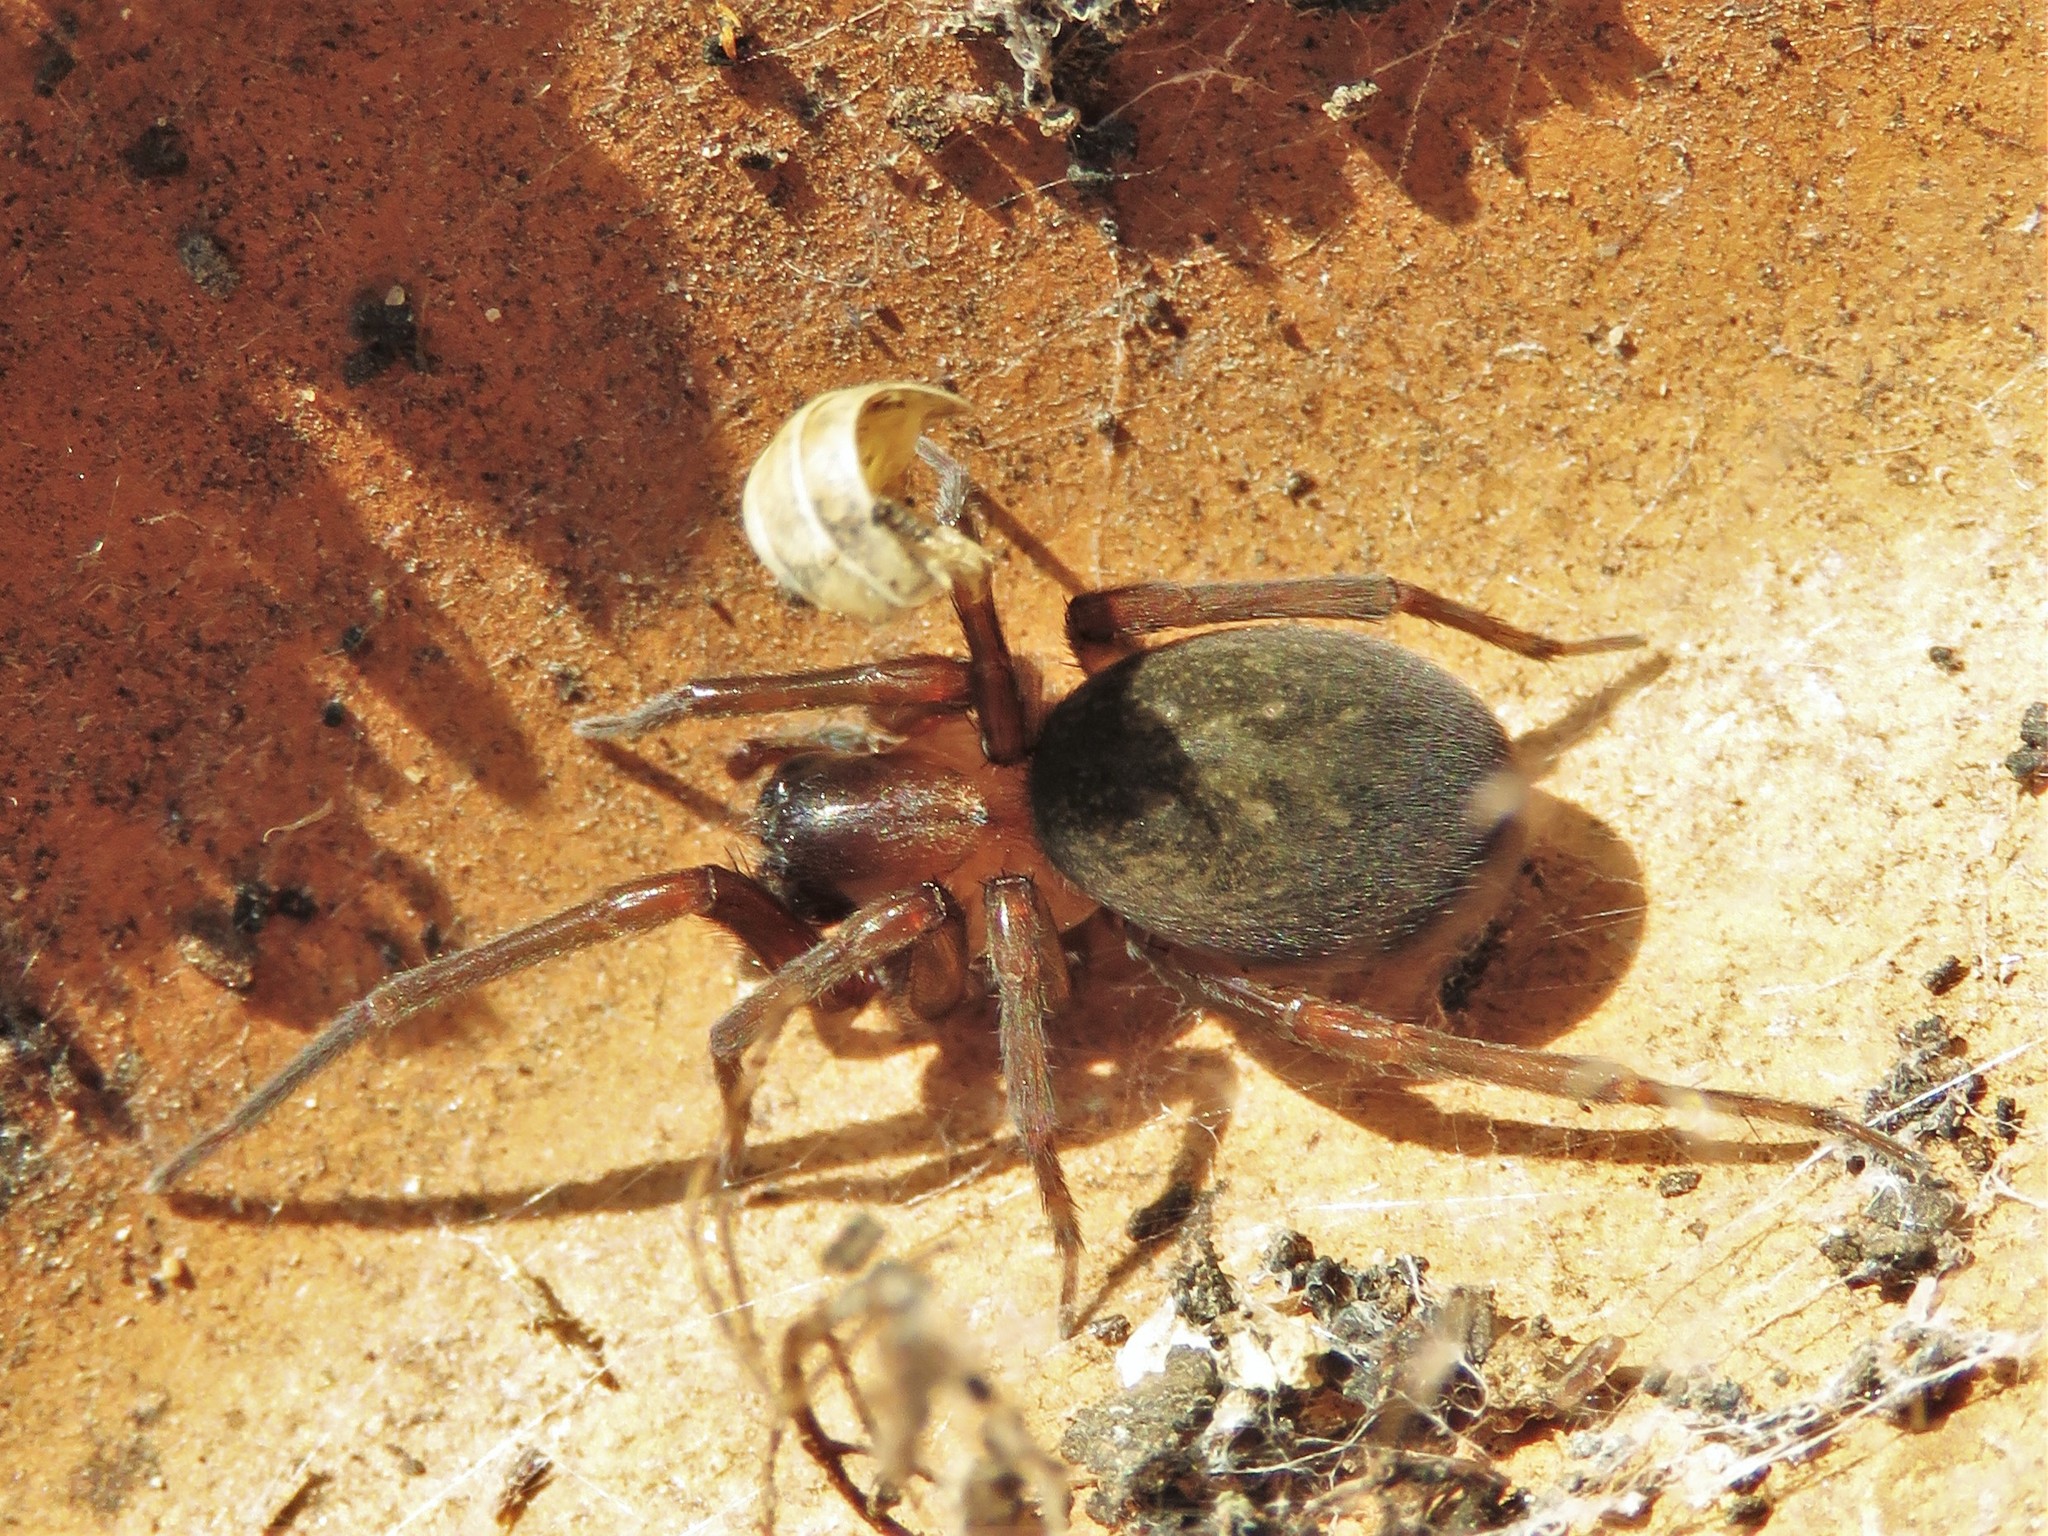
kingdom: Animalia
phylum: Arthropoda
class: Arachnida
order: Araneae
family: Desidae
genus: Metaltella
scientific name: Metaltella simoni
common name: Cribellate spider
